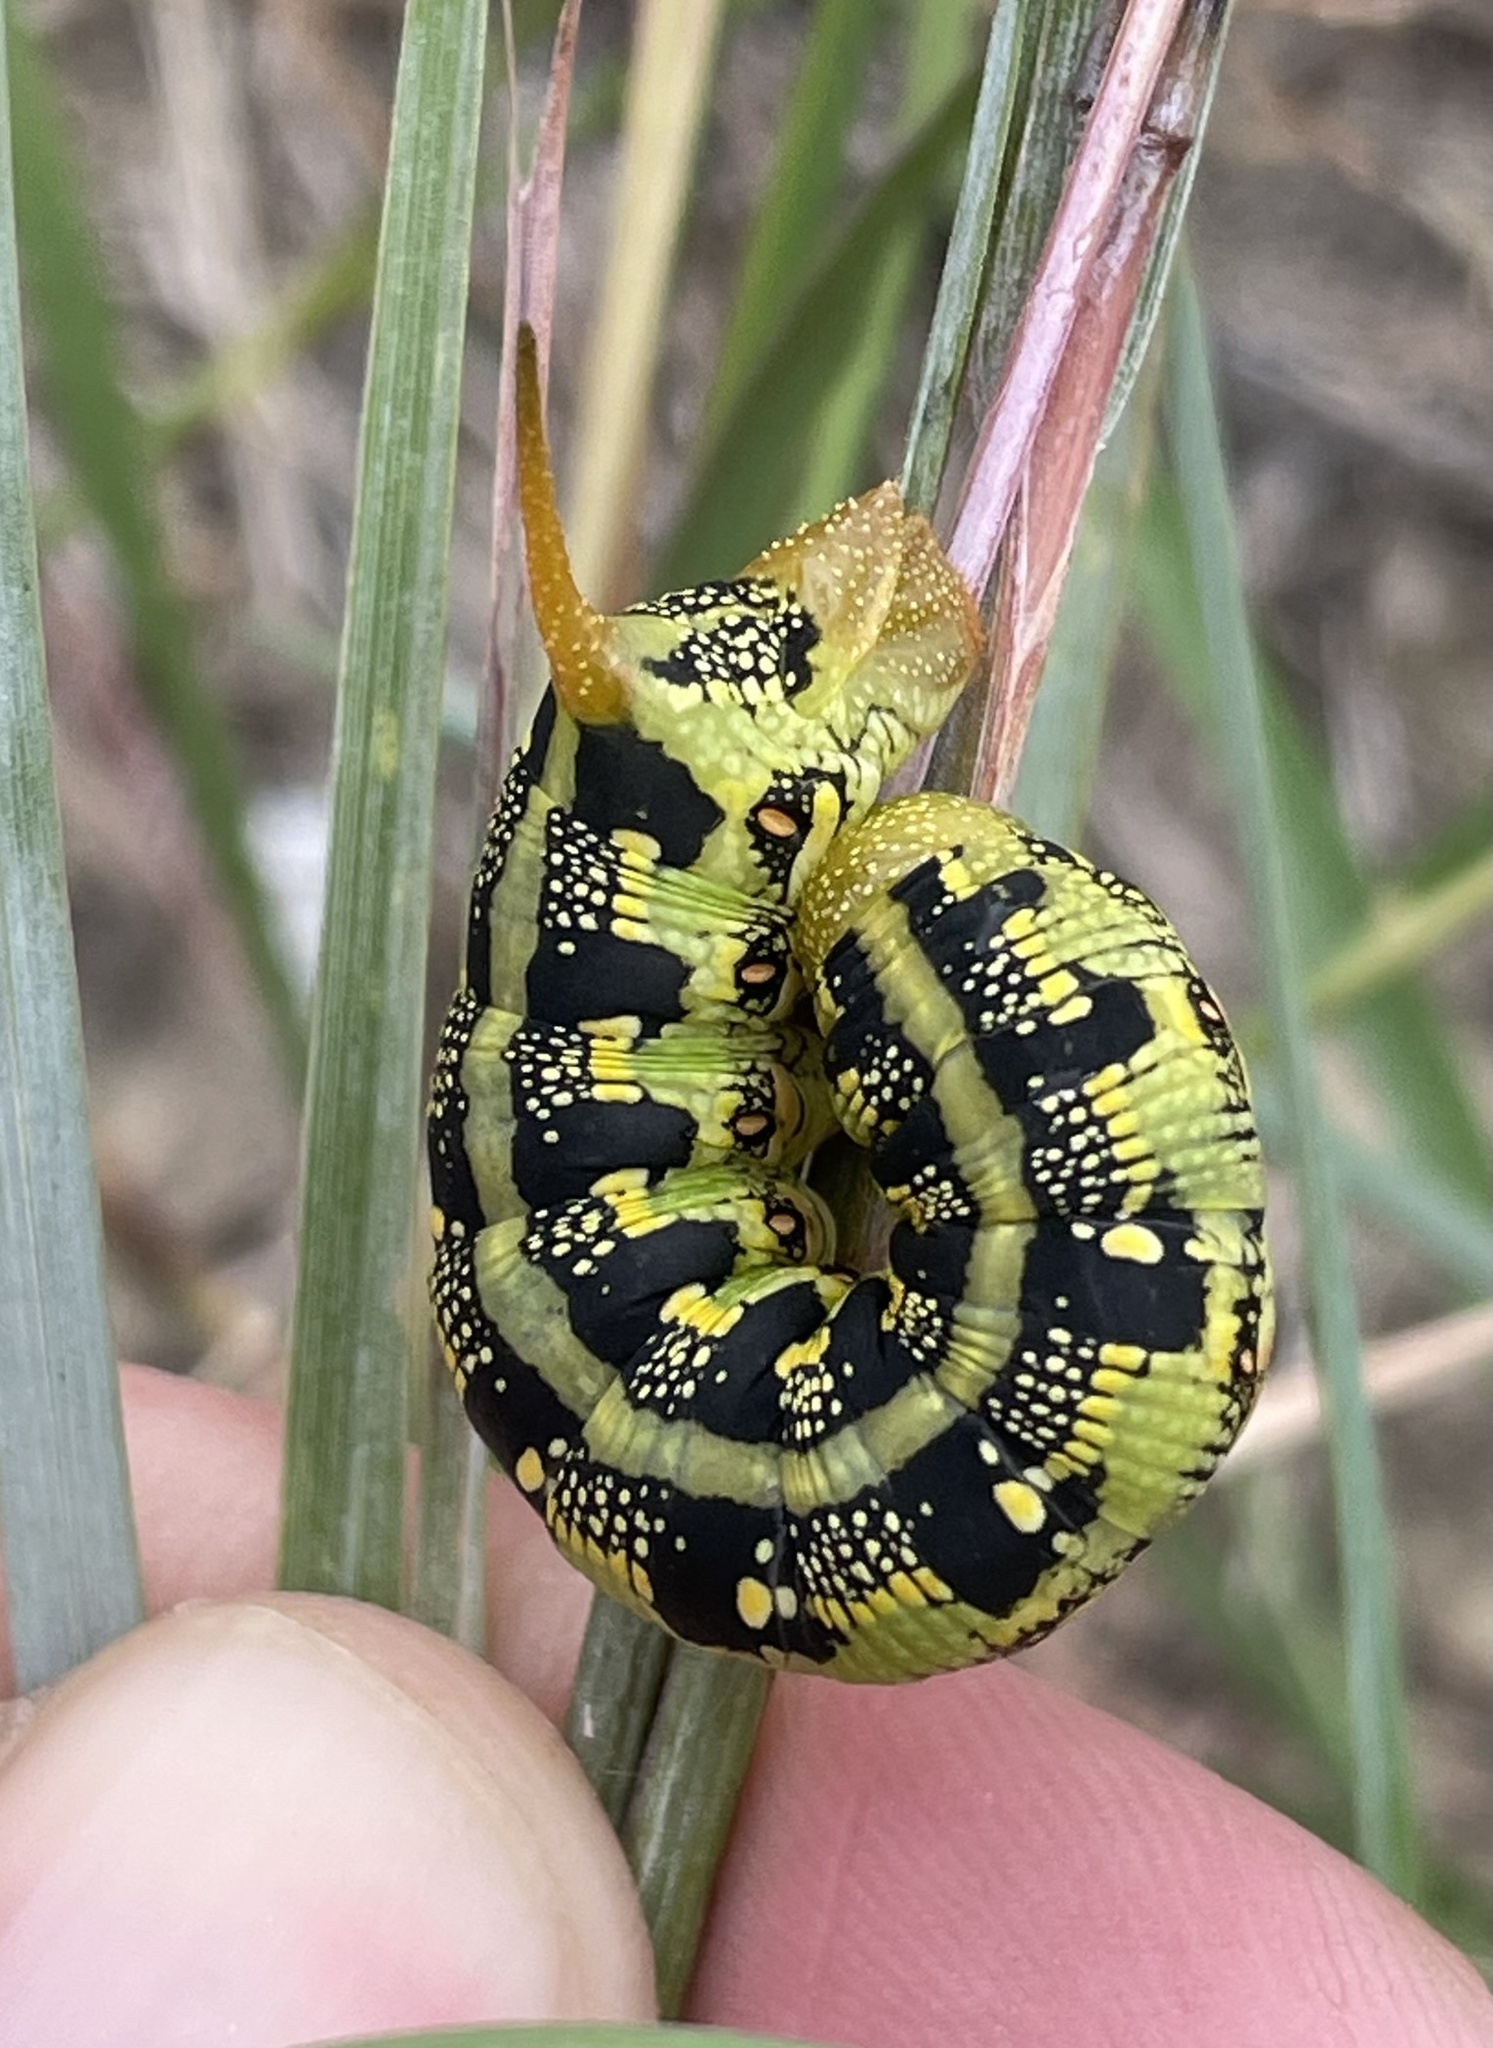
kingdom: Animalia
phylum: Arthropoda
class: Insecta
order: Lepidoptera
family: Sphingidae
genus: Hyles
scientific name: Hyles lineata
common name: White-lined sphinx
